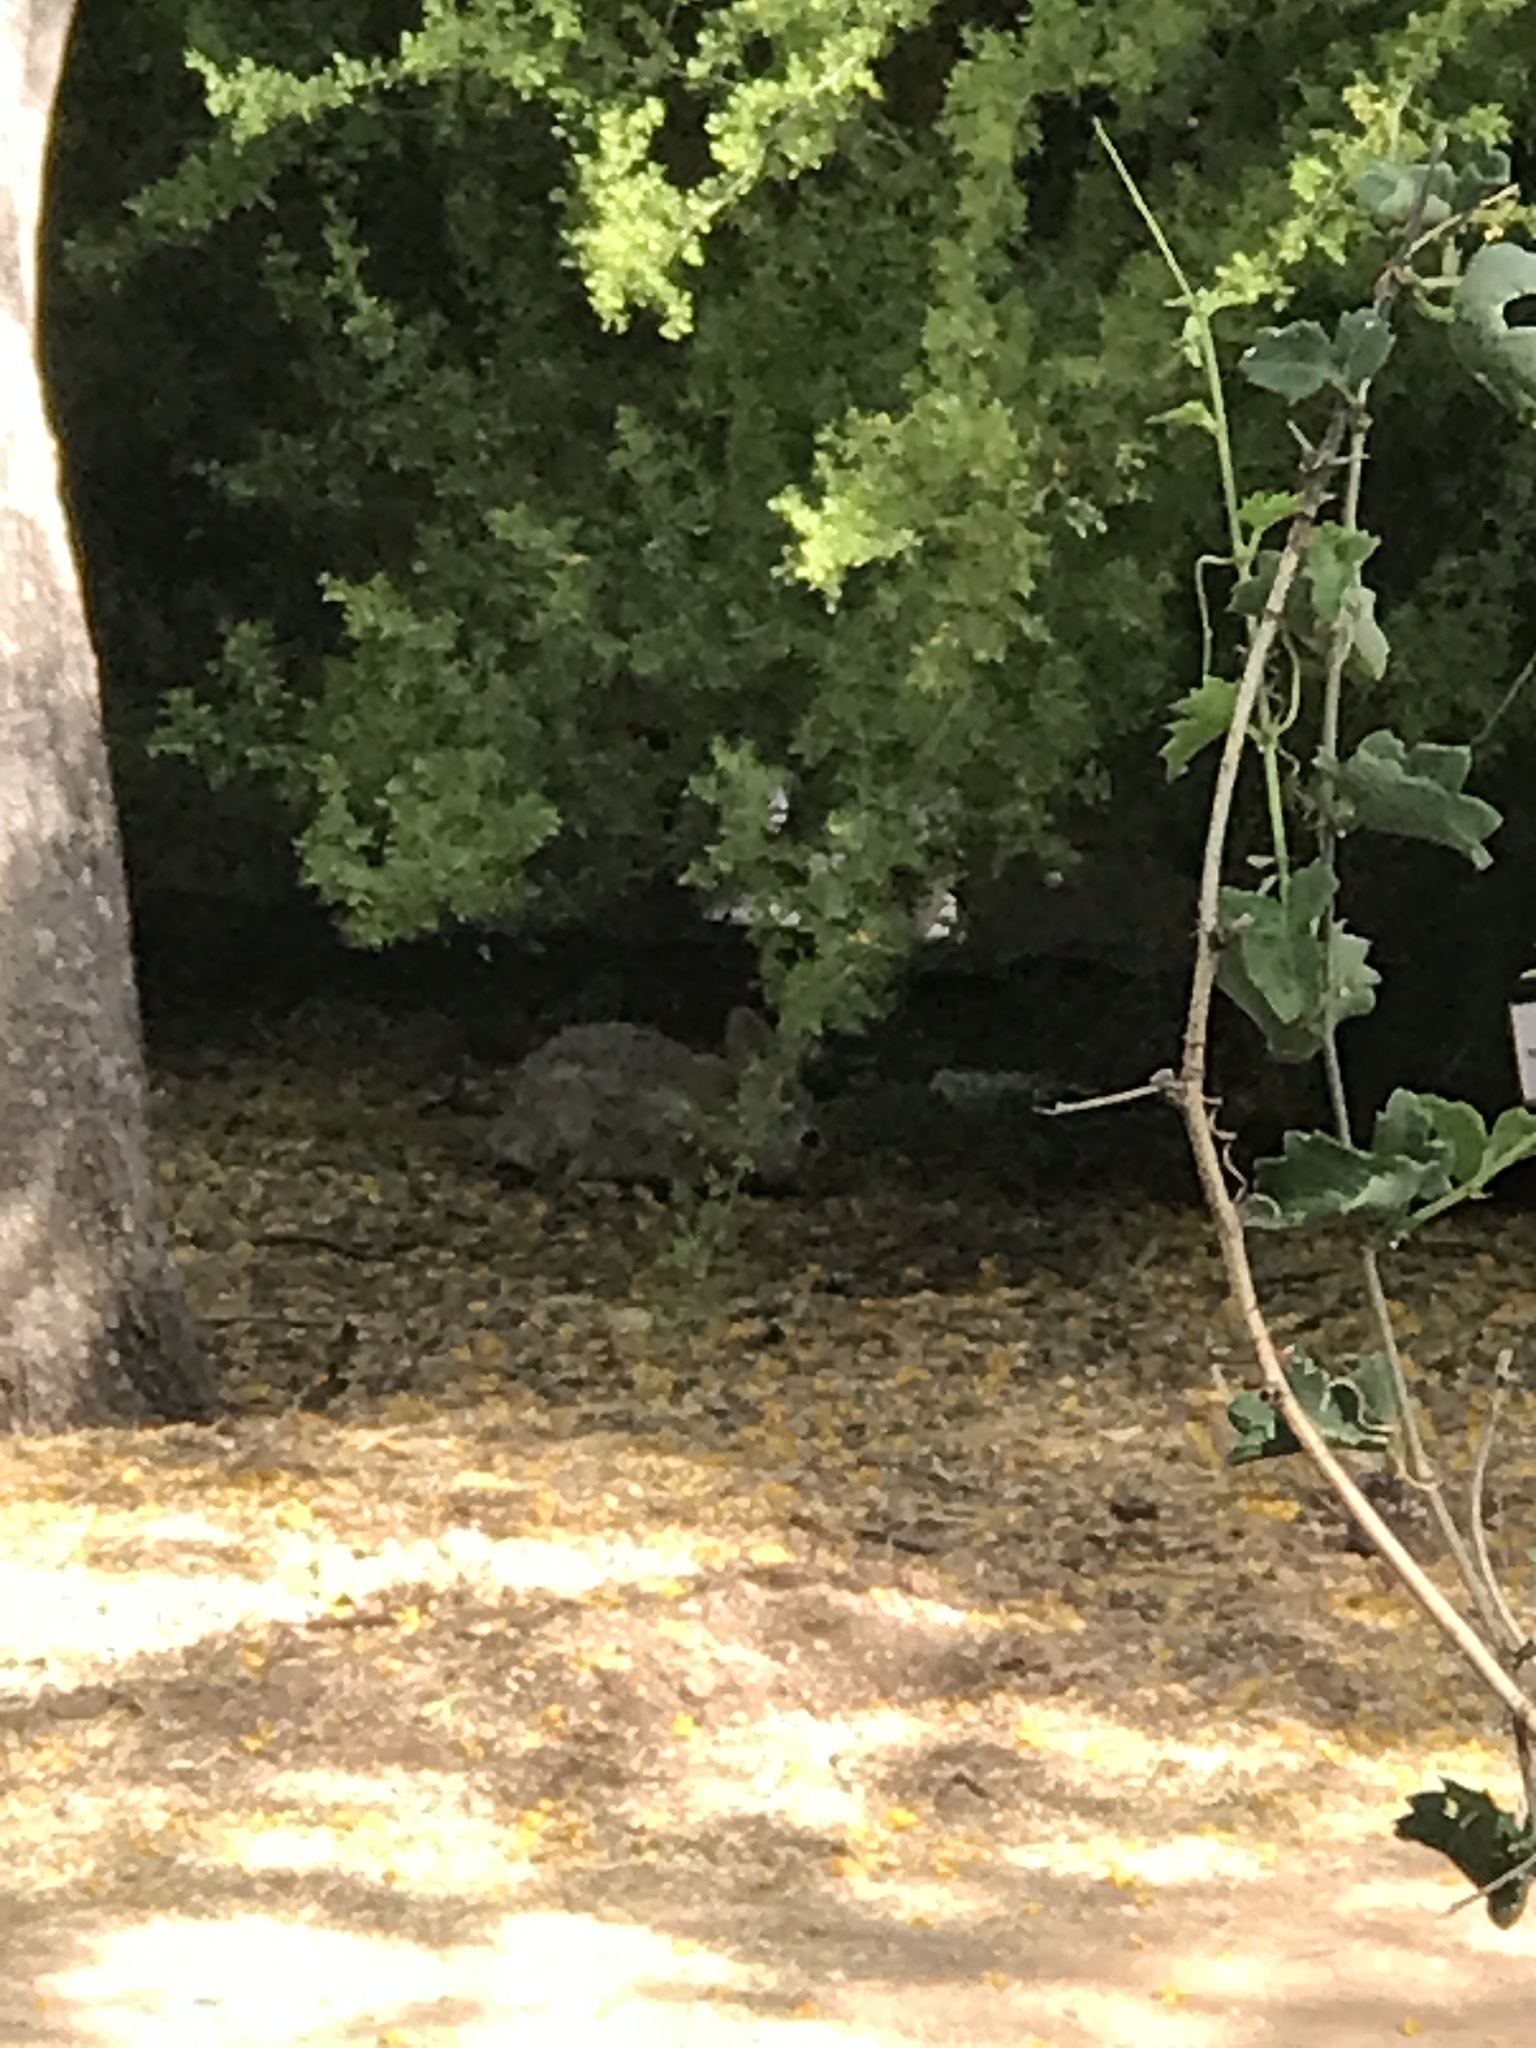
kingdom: Animalia
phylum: Chordata
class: Mammalia
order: Lagomorpha
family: Leporidae
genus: Sylvilagus
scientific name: Sylvilagus audubonii
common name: Desert cottontail
